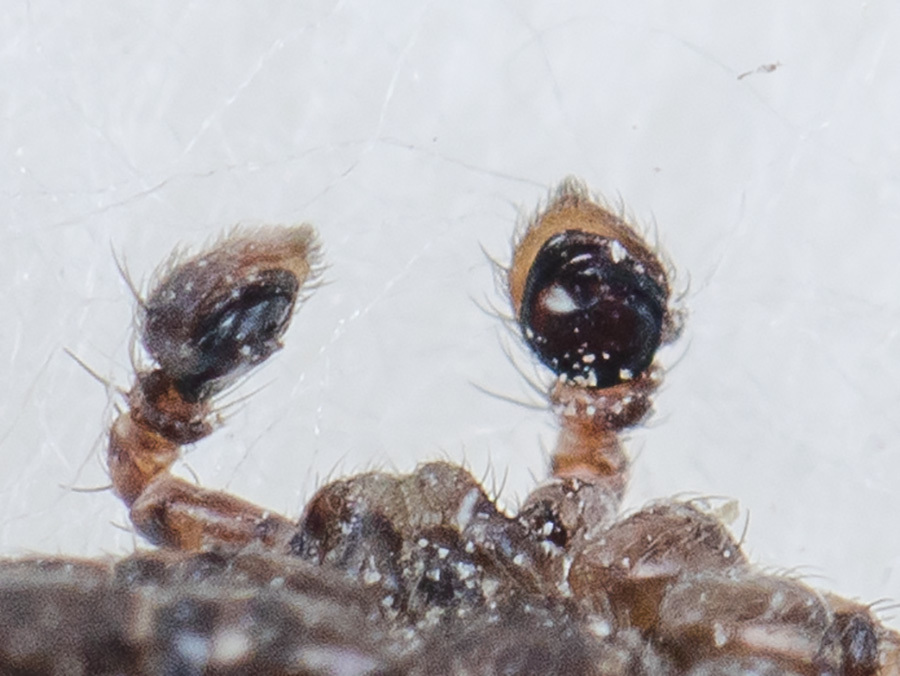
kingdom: Animalia
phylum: Arthropoda
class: Arachnida
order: Araneae
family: Thomisidae
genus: Xysticus
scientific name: Xysticus lapidarius
